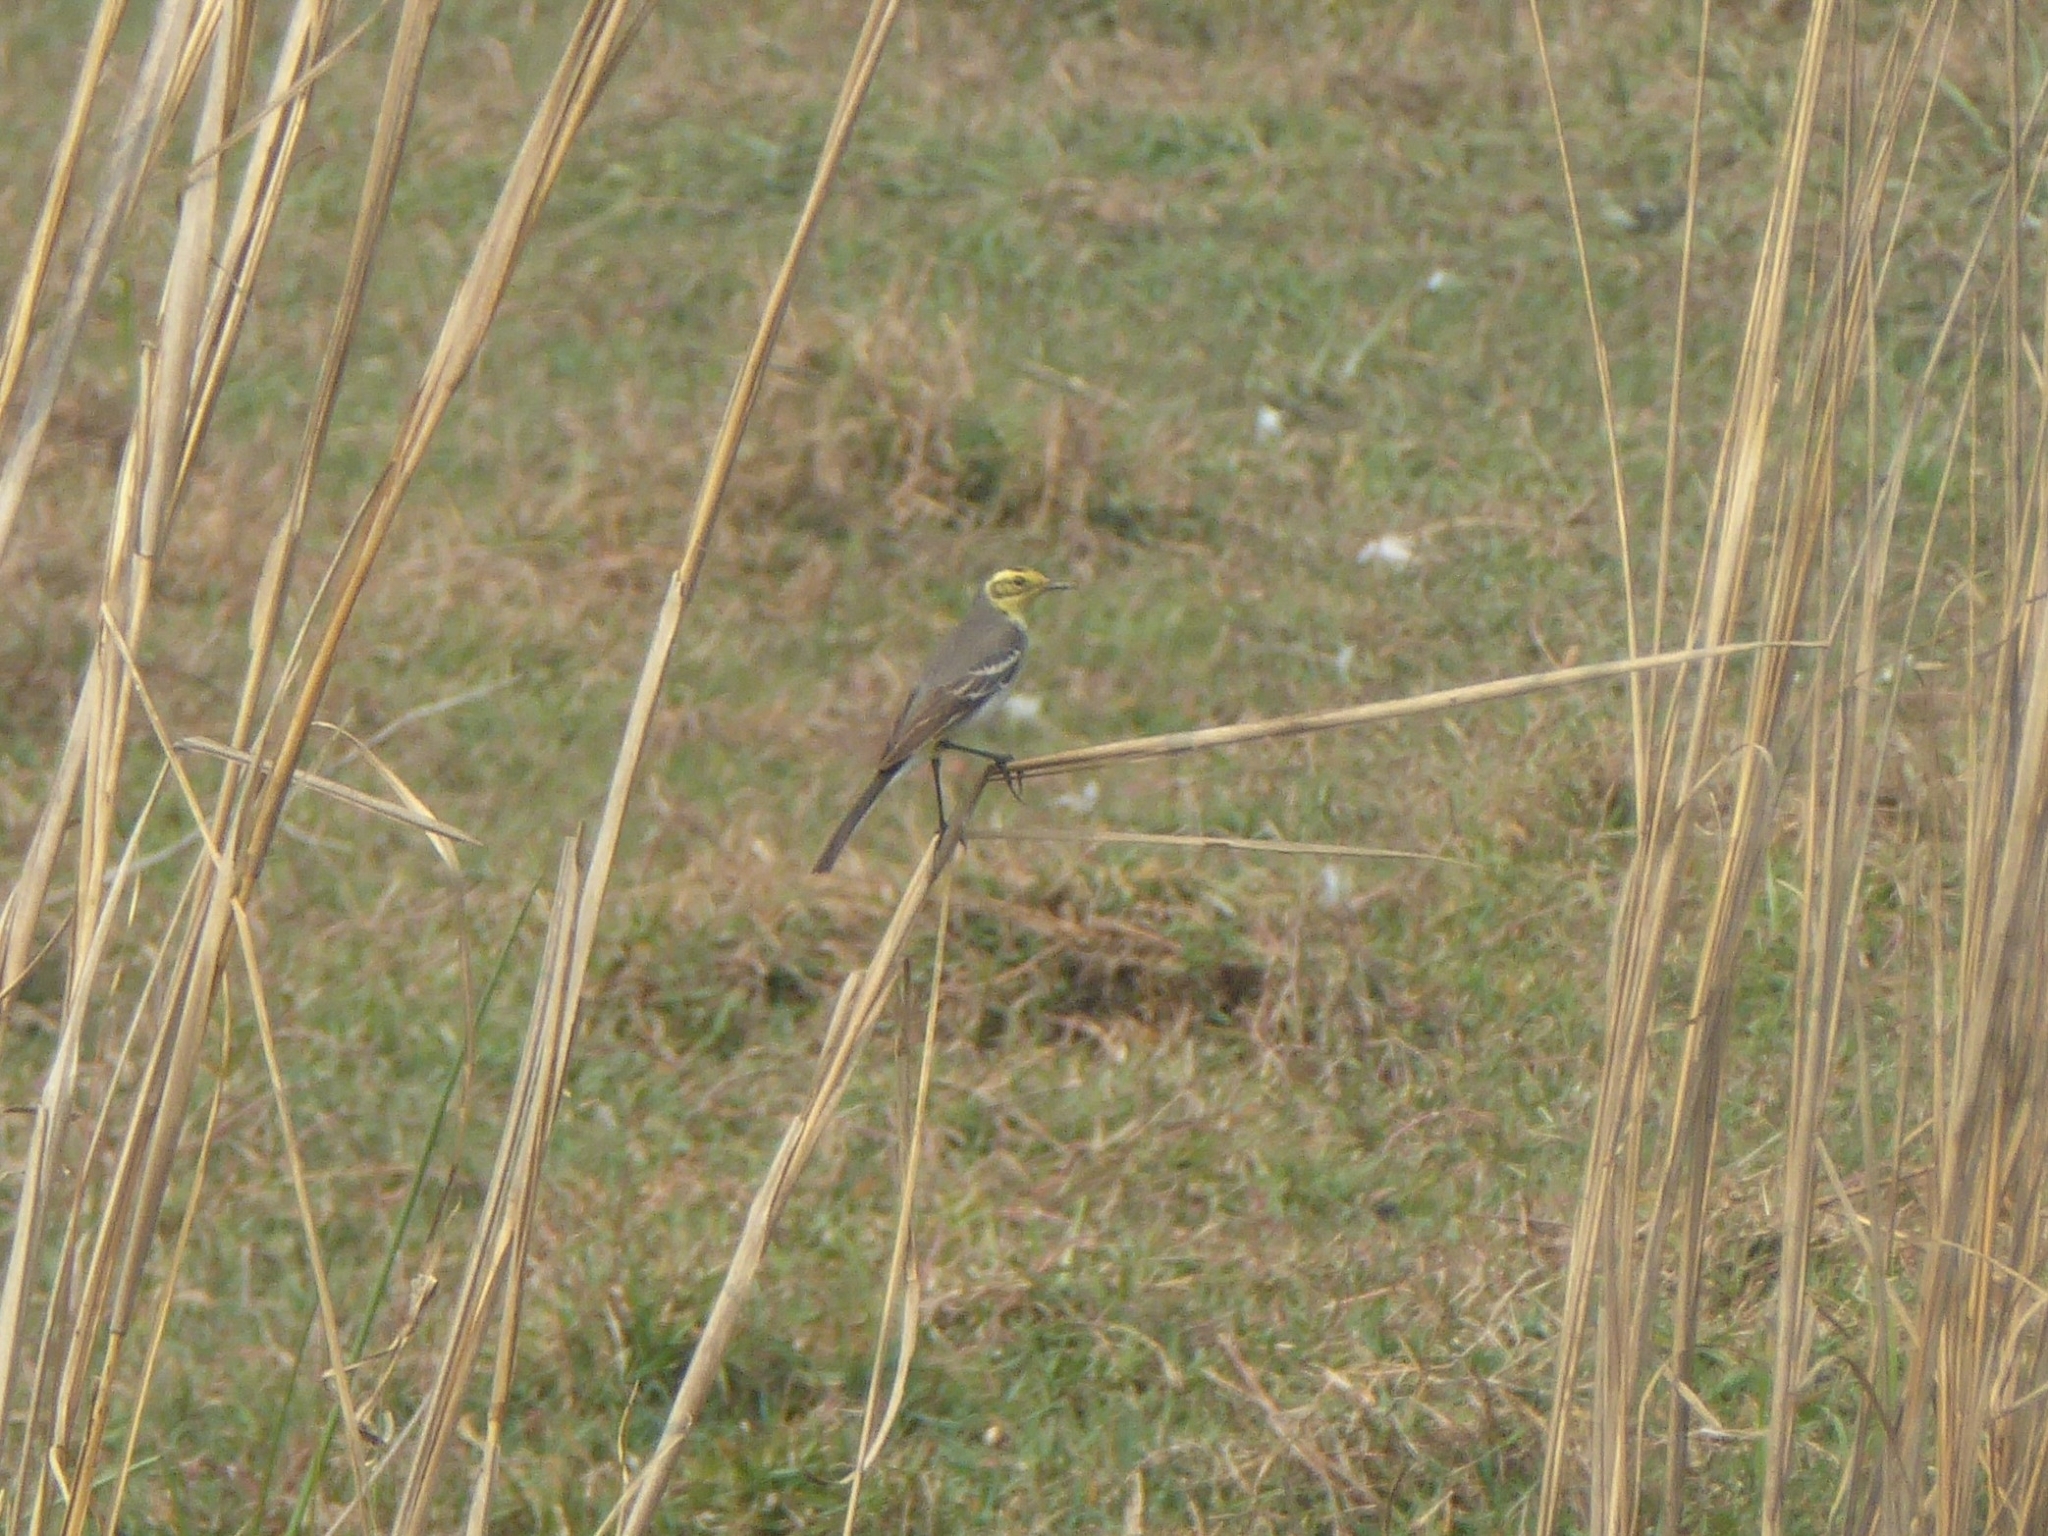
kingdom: Animalia
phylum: Chordata
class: Aves
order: Passeriformes
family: Motacillidae
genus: Motacilla
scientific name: Motacilla citreola
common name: Citrine wagtail
